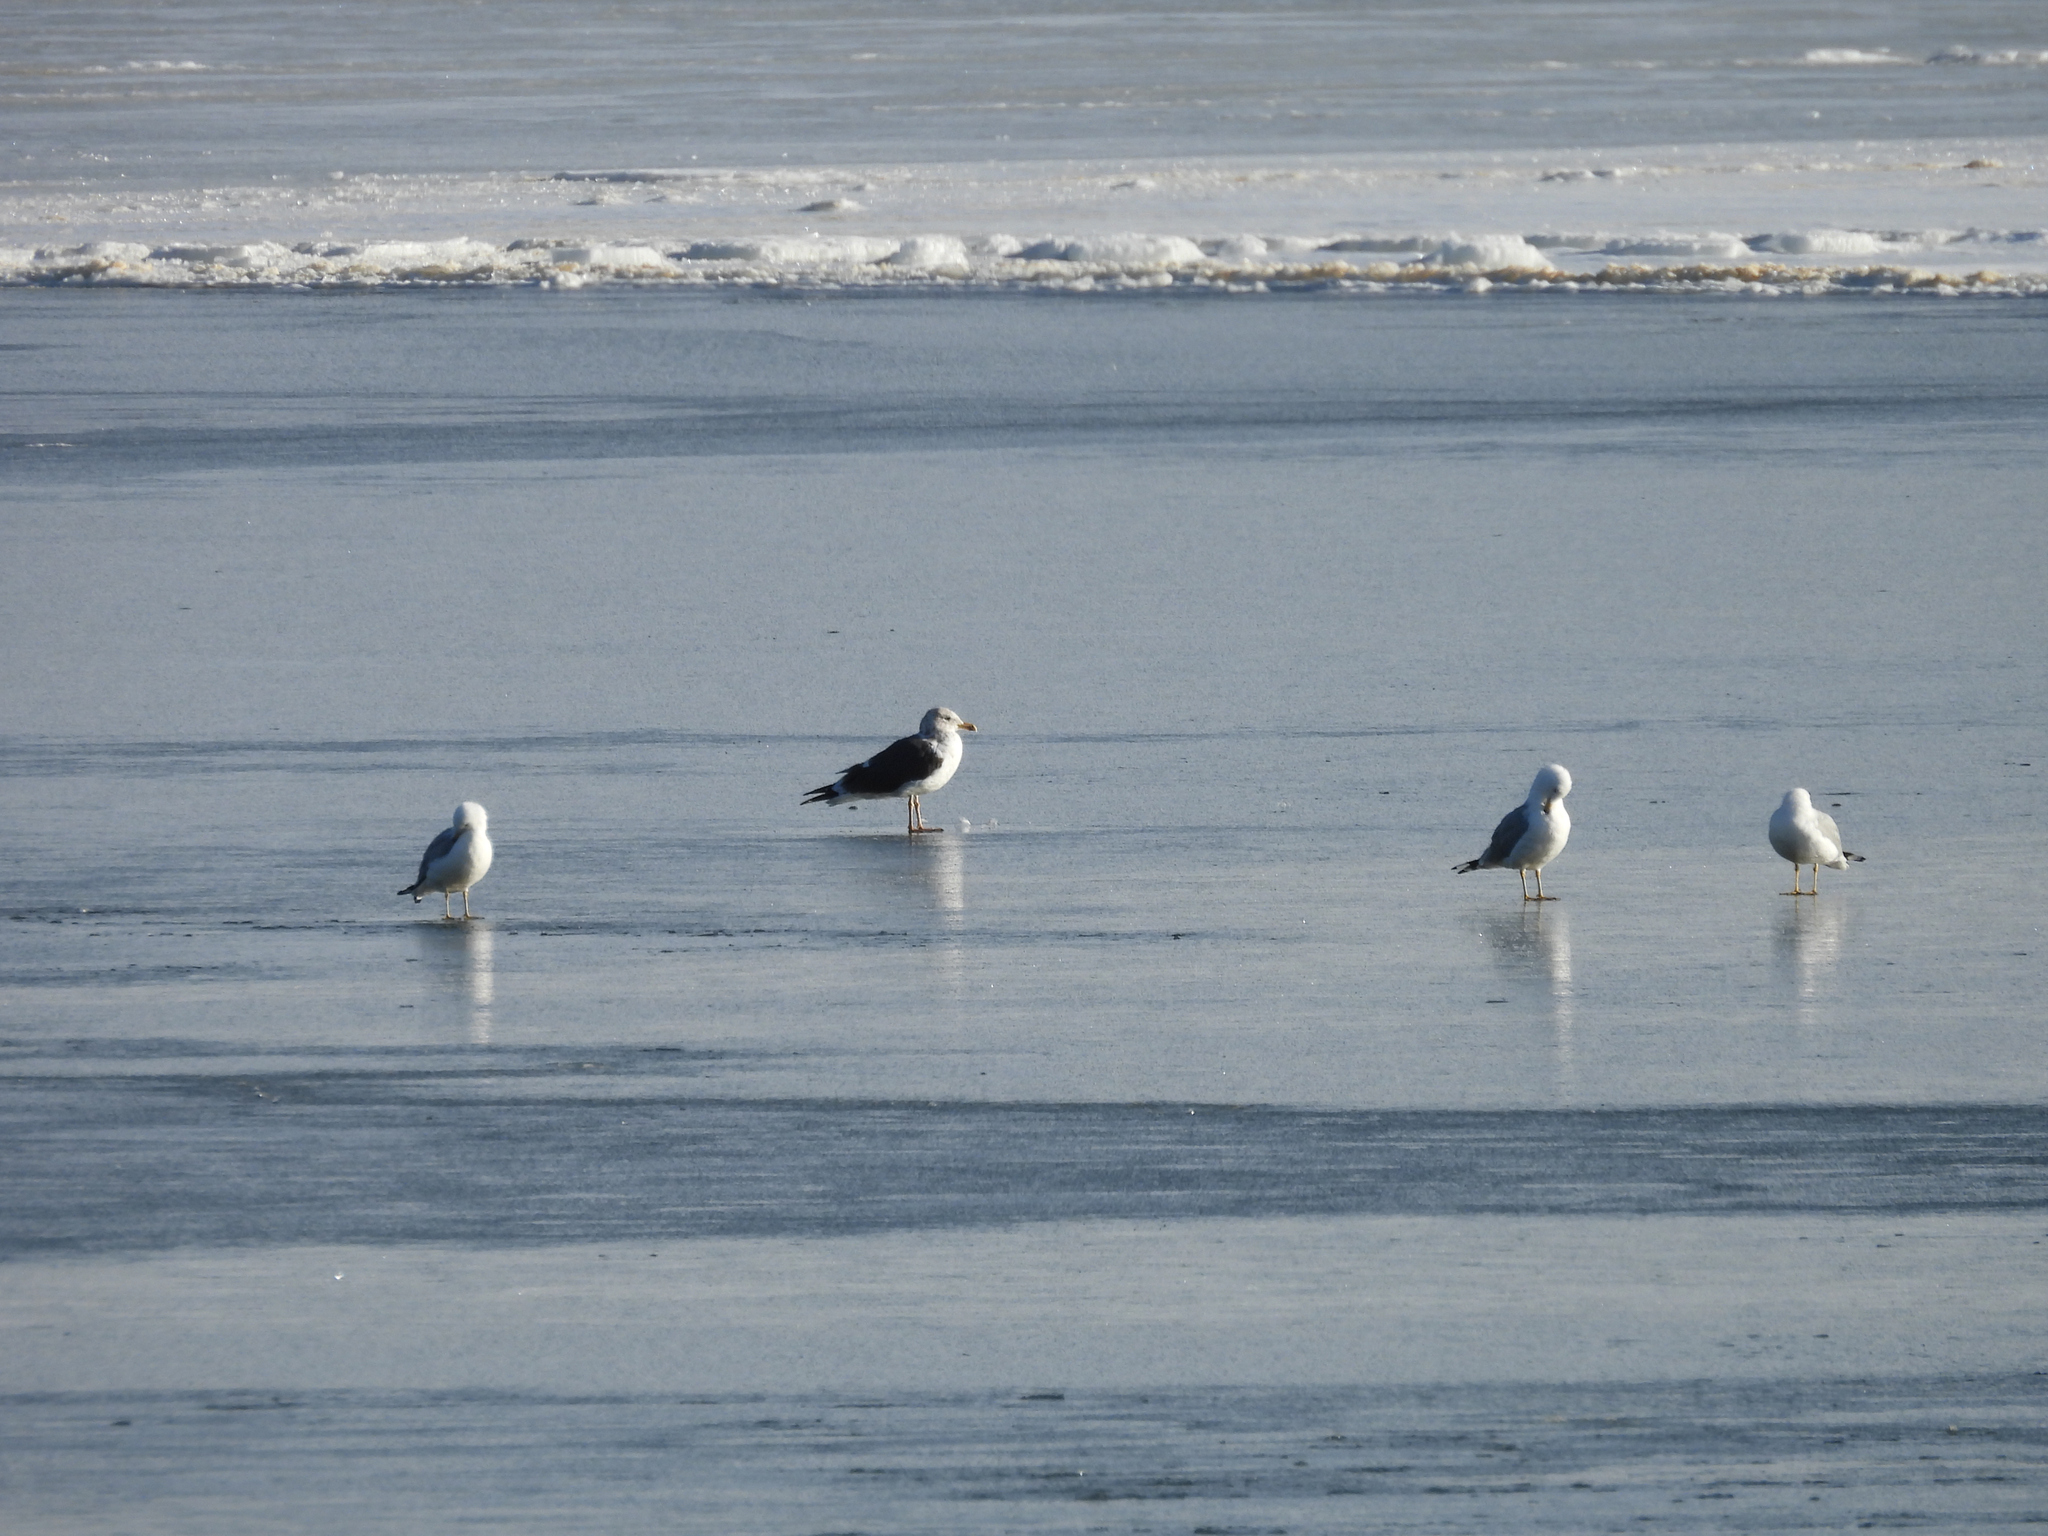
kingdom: Animalia
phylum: Chordata
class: Aves
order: Charadriiformes
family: Laridae
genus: Larus
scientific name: Larus fuscus
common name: Lesser black-backed gull
